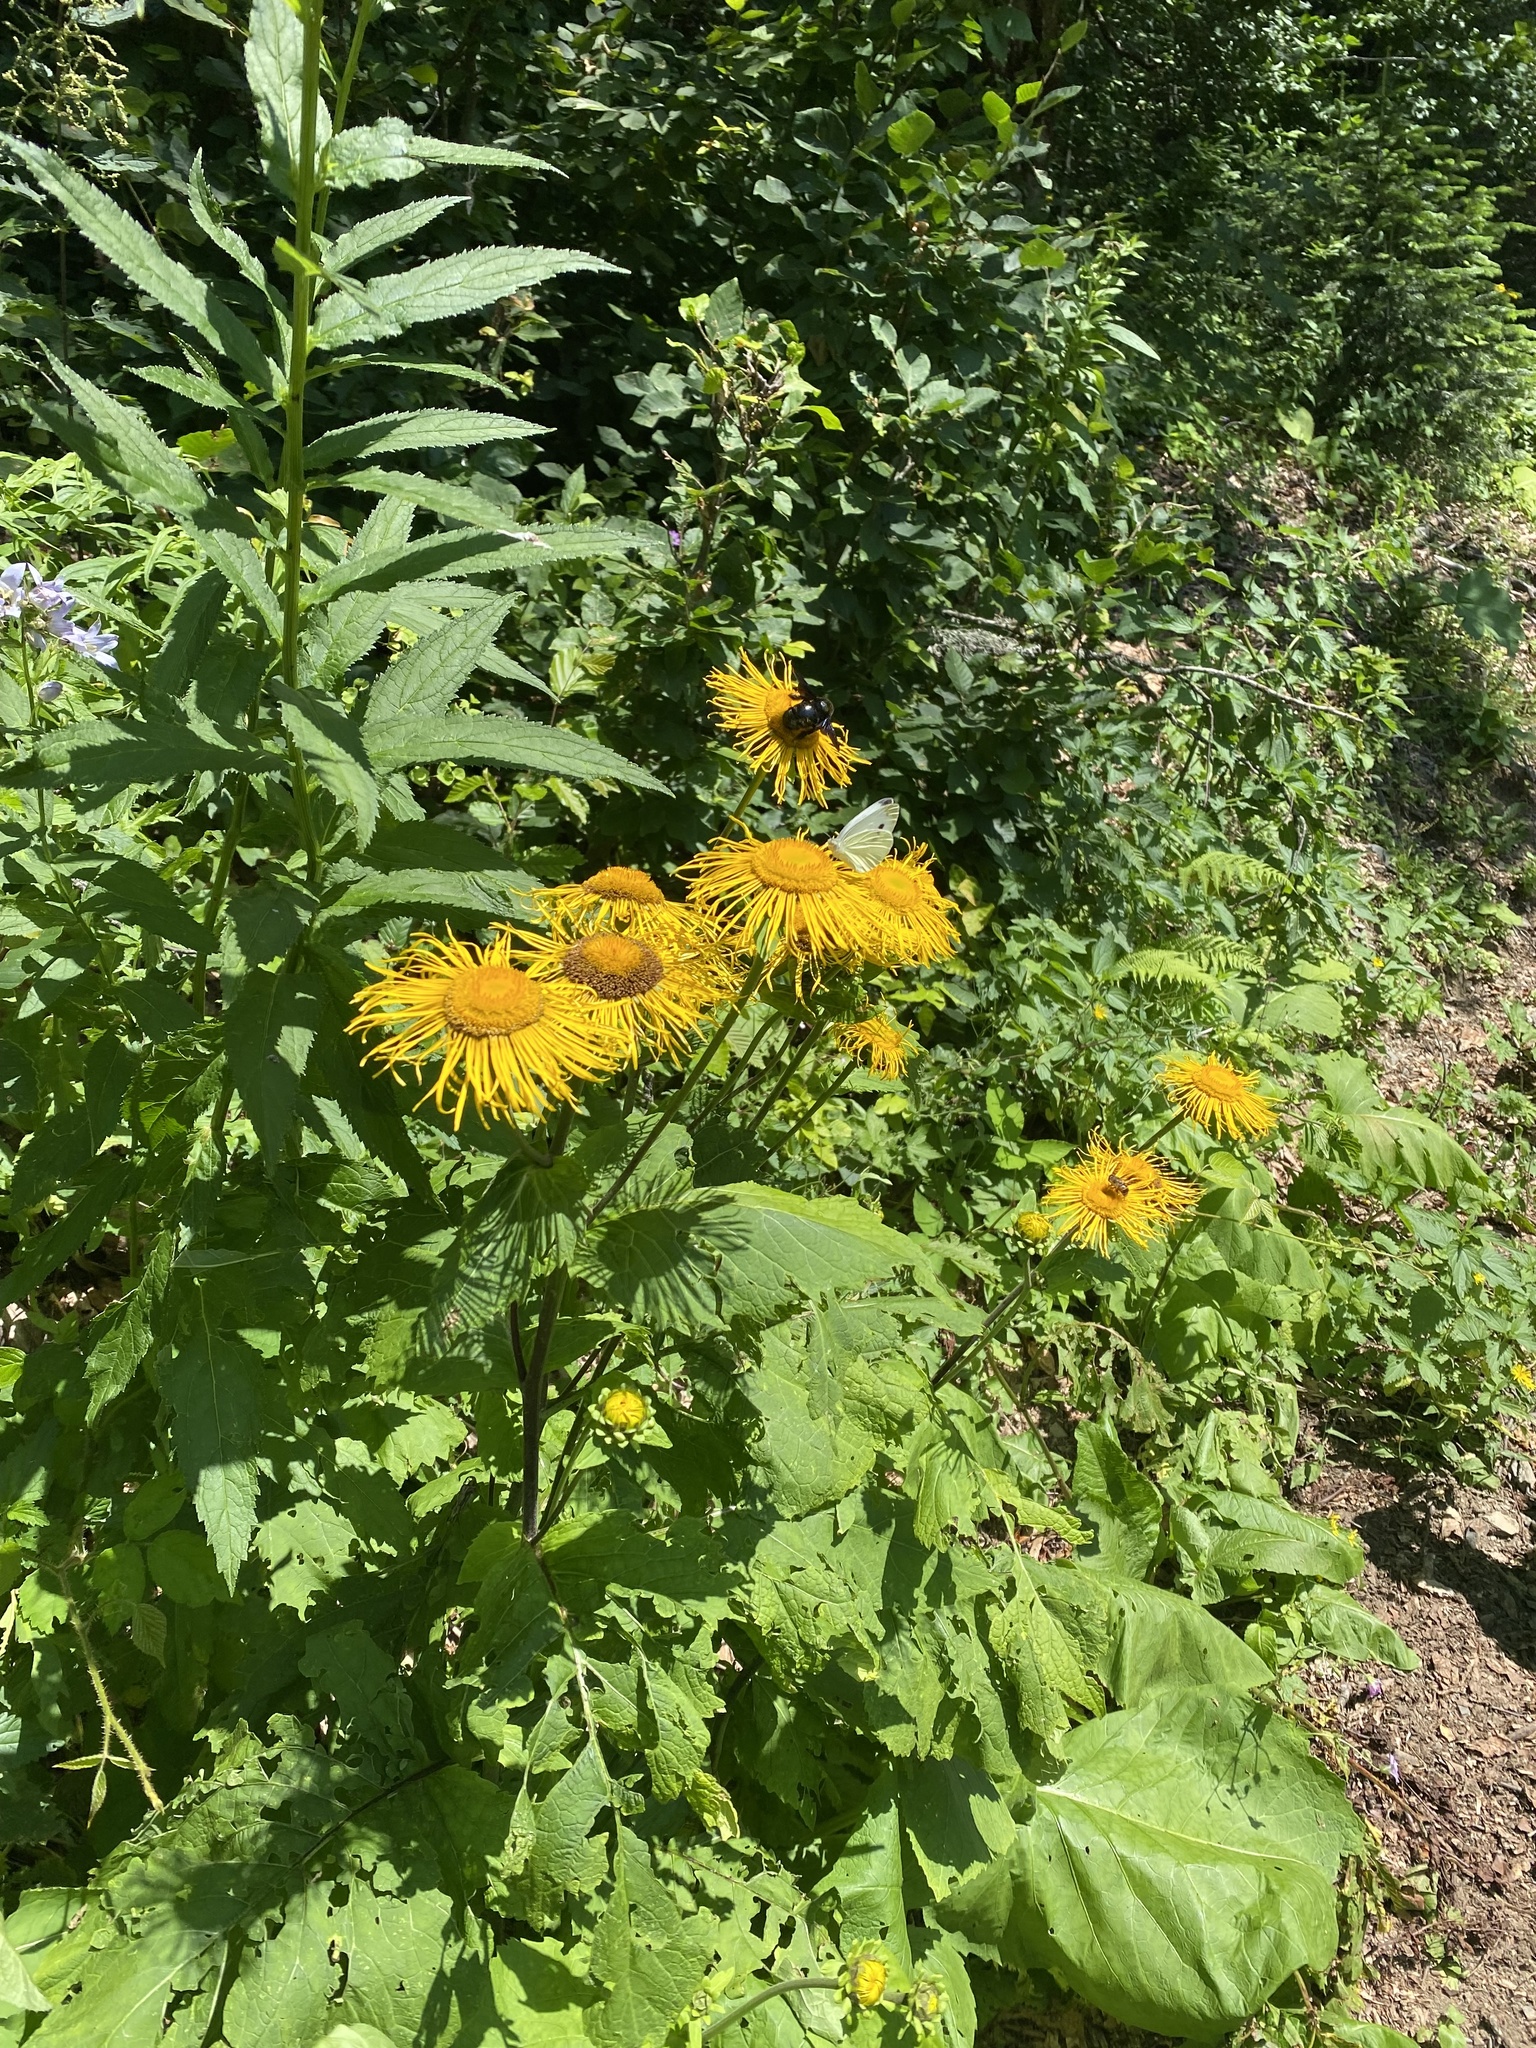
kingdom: Plantae
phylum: Tracheophyta
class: Magnoliopsida
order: Asterales
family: Asteraceae
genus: Telekia
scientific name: Telekia speciosa
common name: Yellow oxeye
